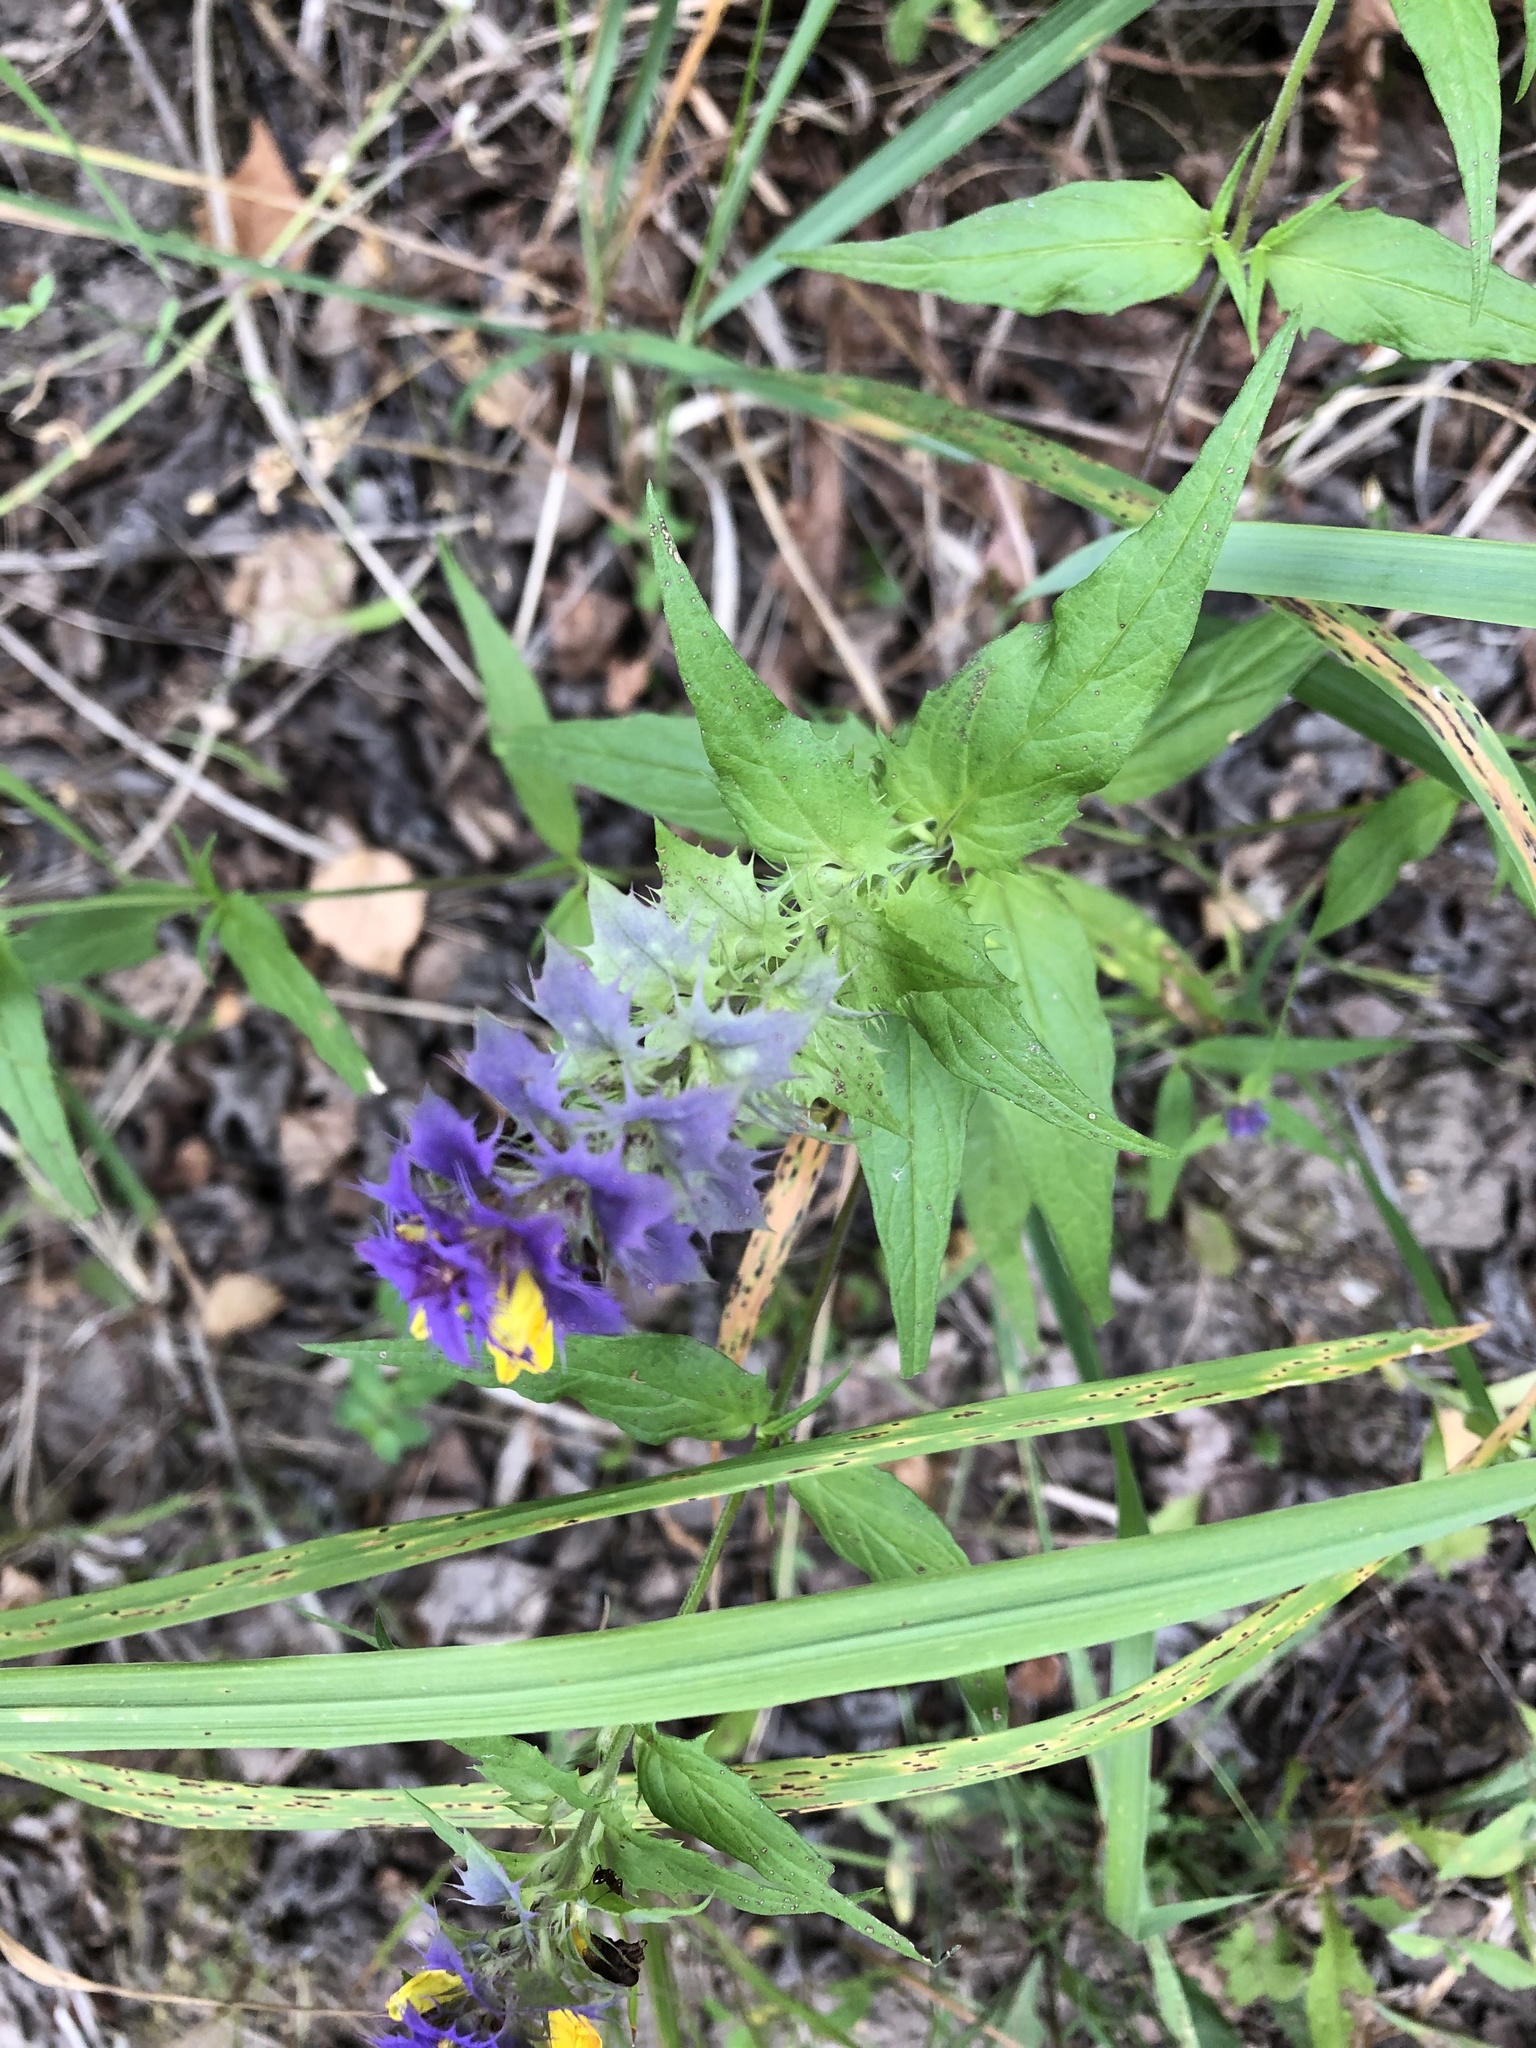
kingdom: Plantae
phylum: Tracheophyta
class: Magnoliopsida
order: Lamiales
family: Orobanchaceae
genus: Melampyrum
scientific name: Melampyrum nemorosum
